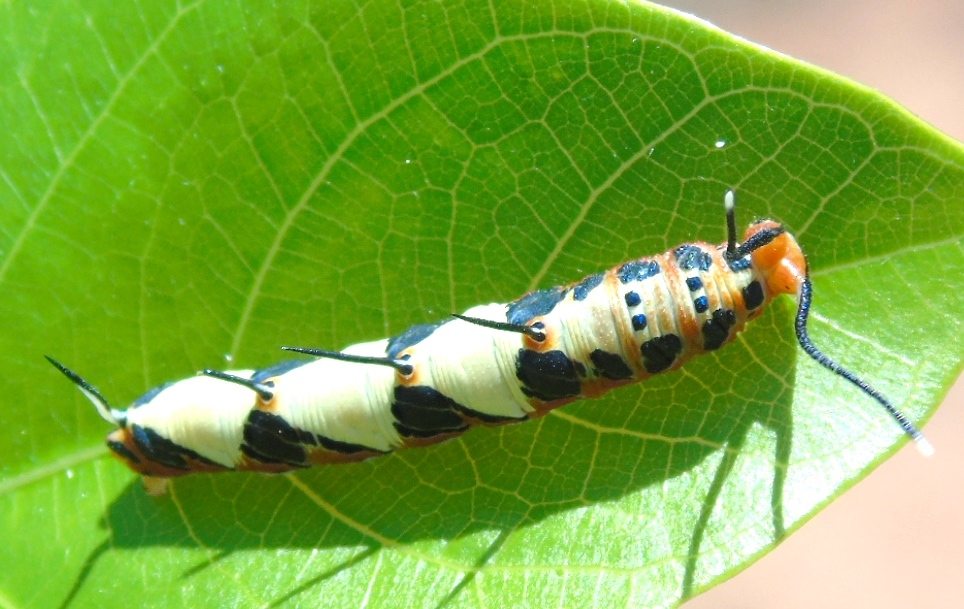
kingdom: Animalia
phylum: Arthropoda
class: Insecta
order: Lepidoptera
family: Nymphalidae
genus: Marpesia
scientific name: Marpesia petreus
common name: Red dagger wing
